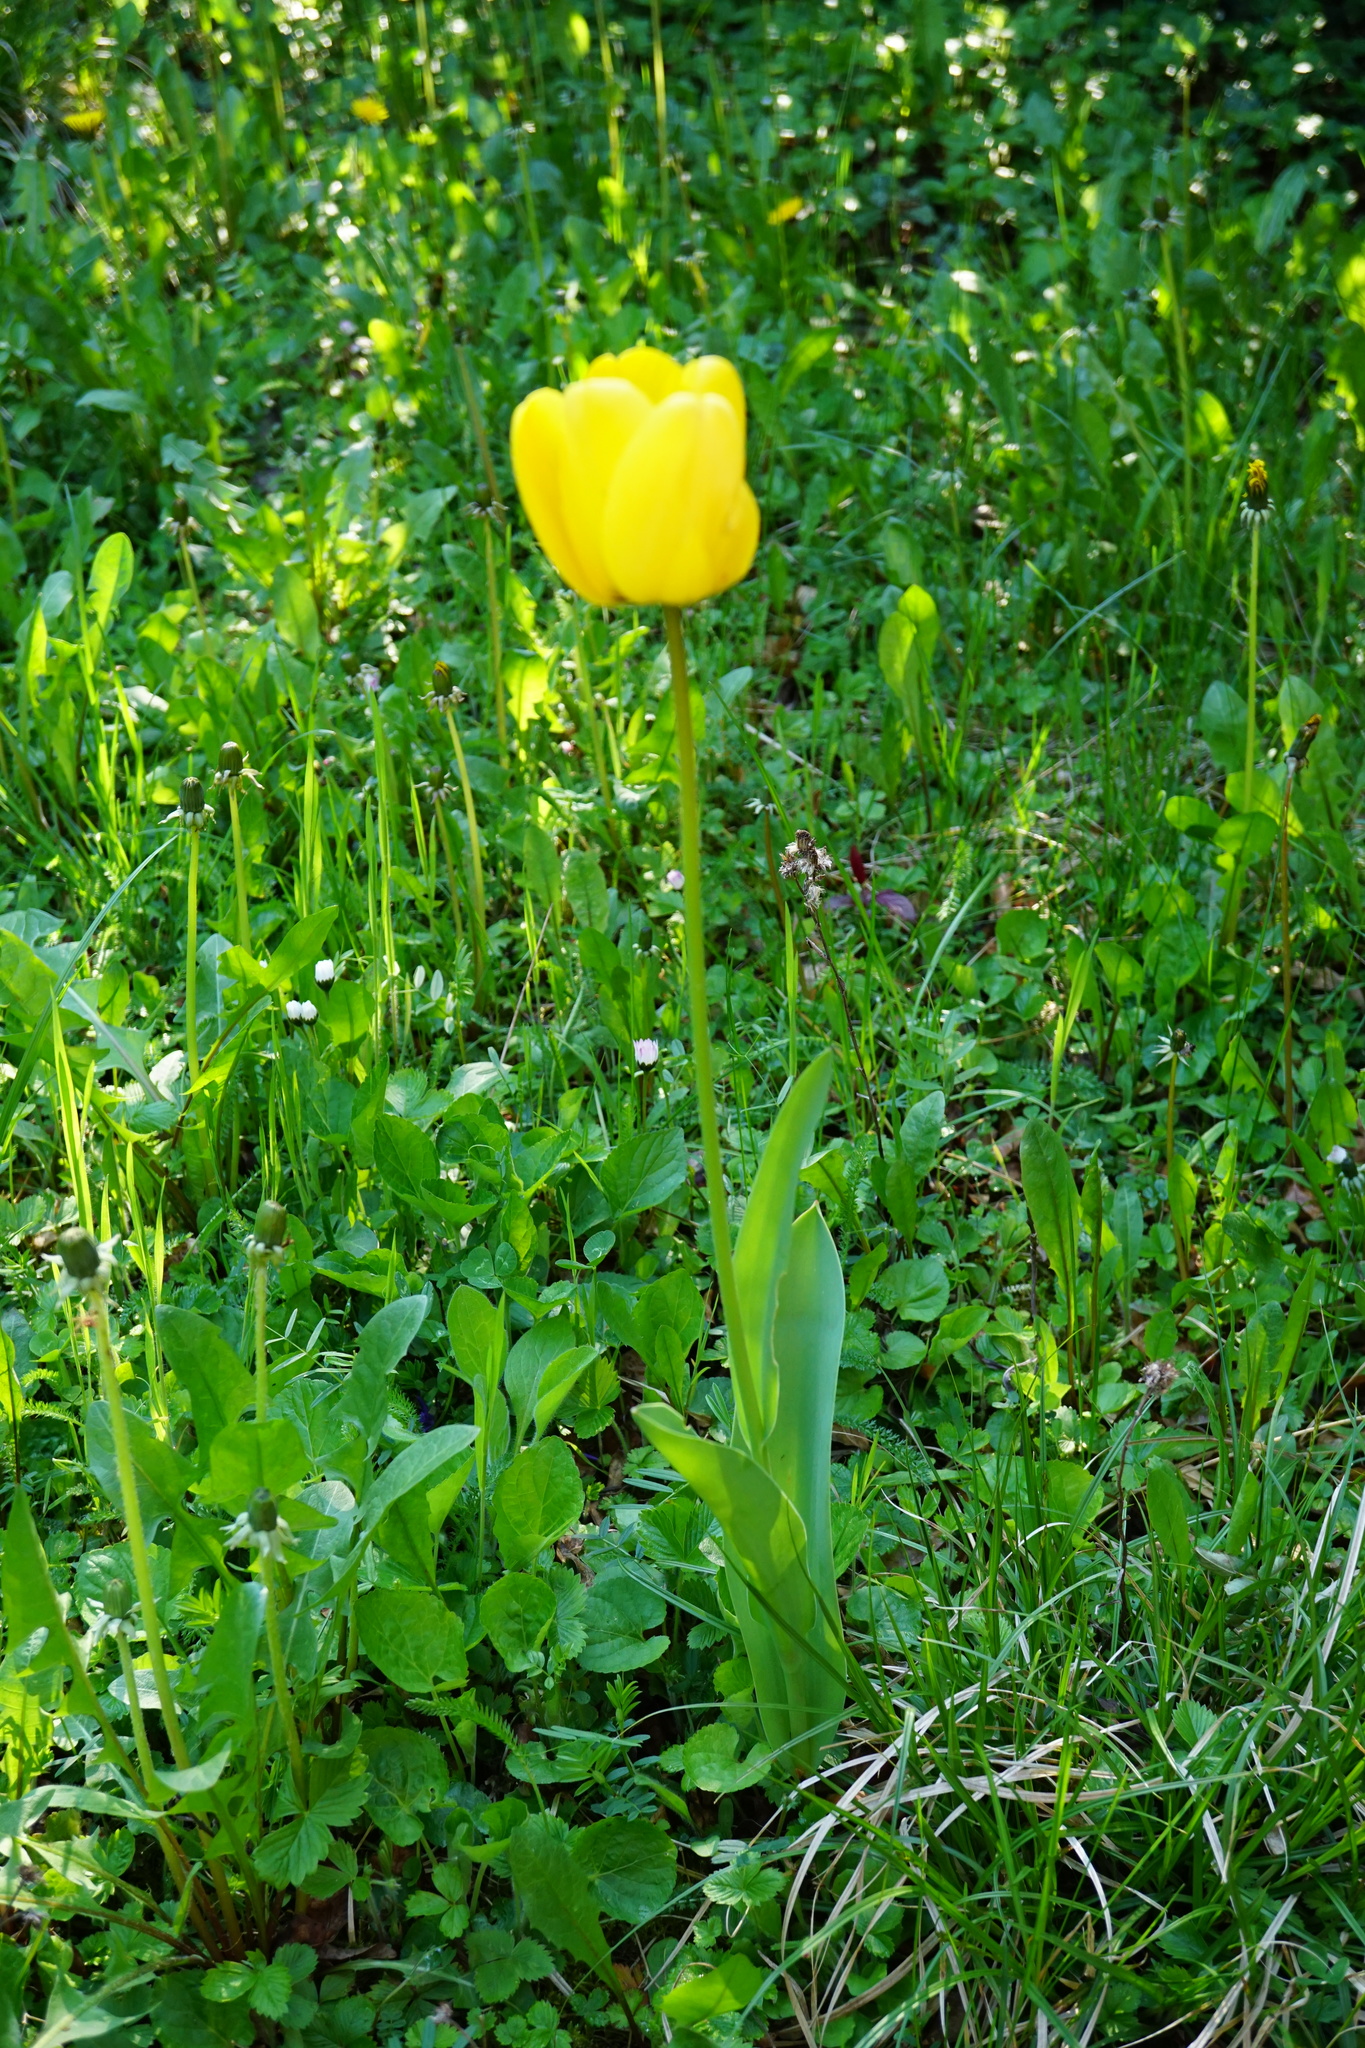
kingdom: Plantae
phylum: Tracheophyta
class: Liliopsida
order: Liliales
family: Liliaceae
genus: Tulipa
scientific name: Tulipa gesneriana
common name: Garden tulip
